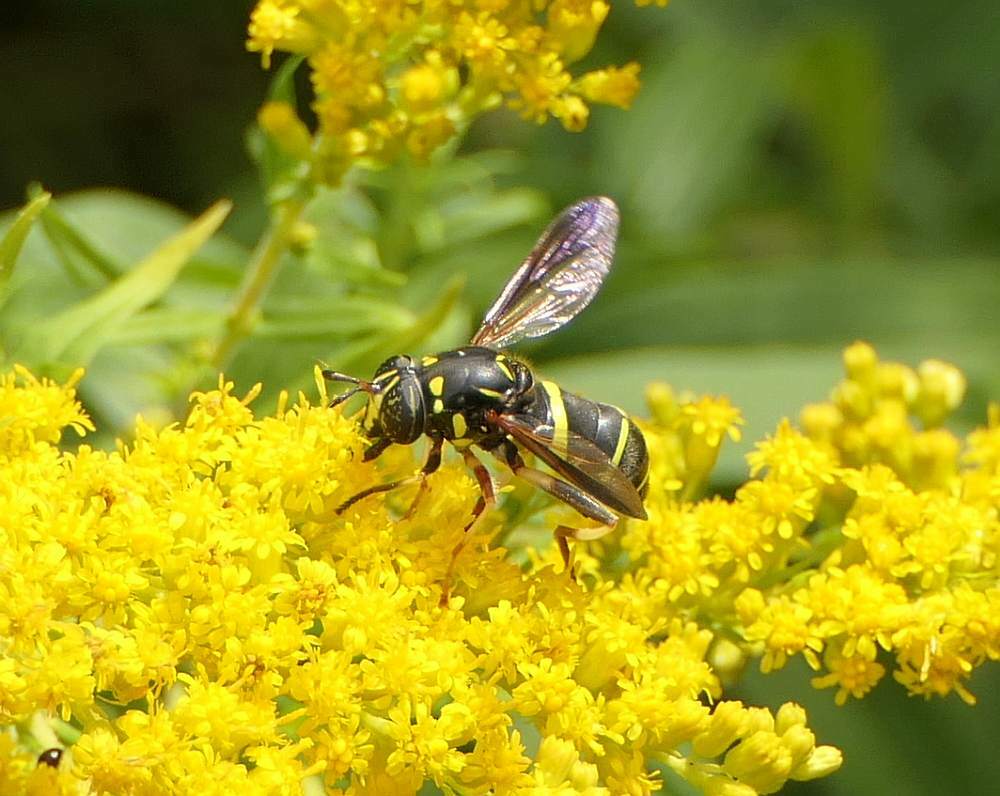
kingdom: Animalia
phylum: Arthropoda
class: Insecta
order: Diptera
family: Syrphidae
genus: Spilomyia
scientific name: Spilomyia sayi
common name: Four-lined hornet fly
